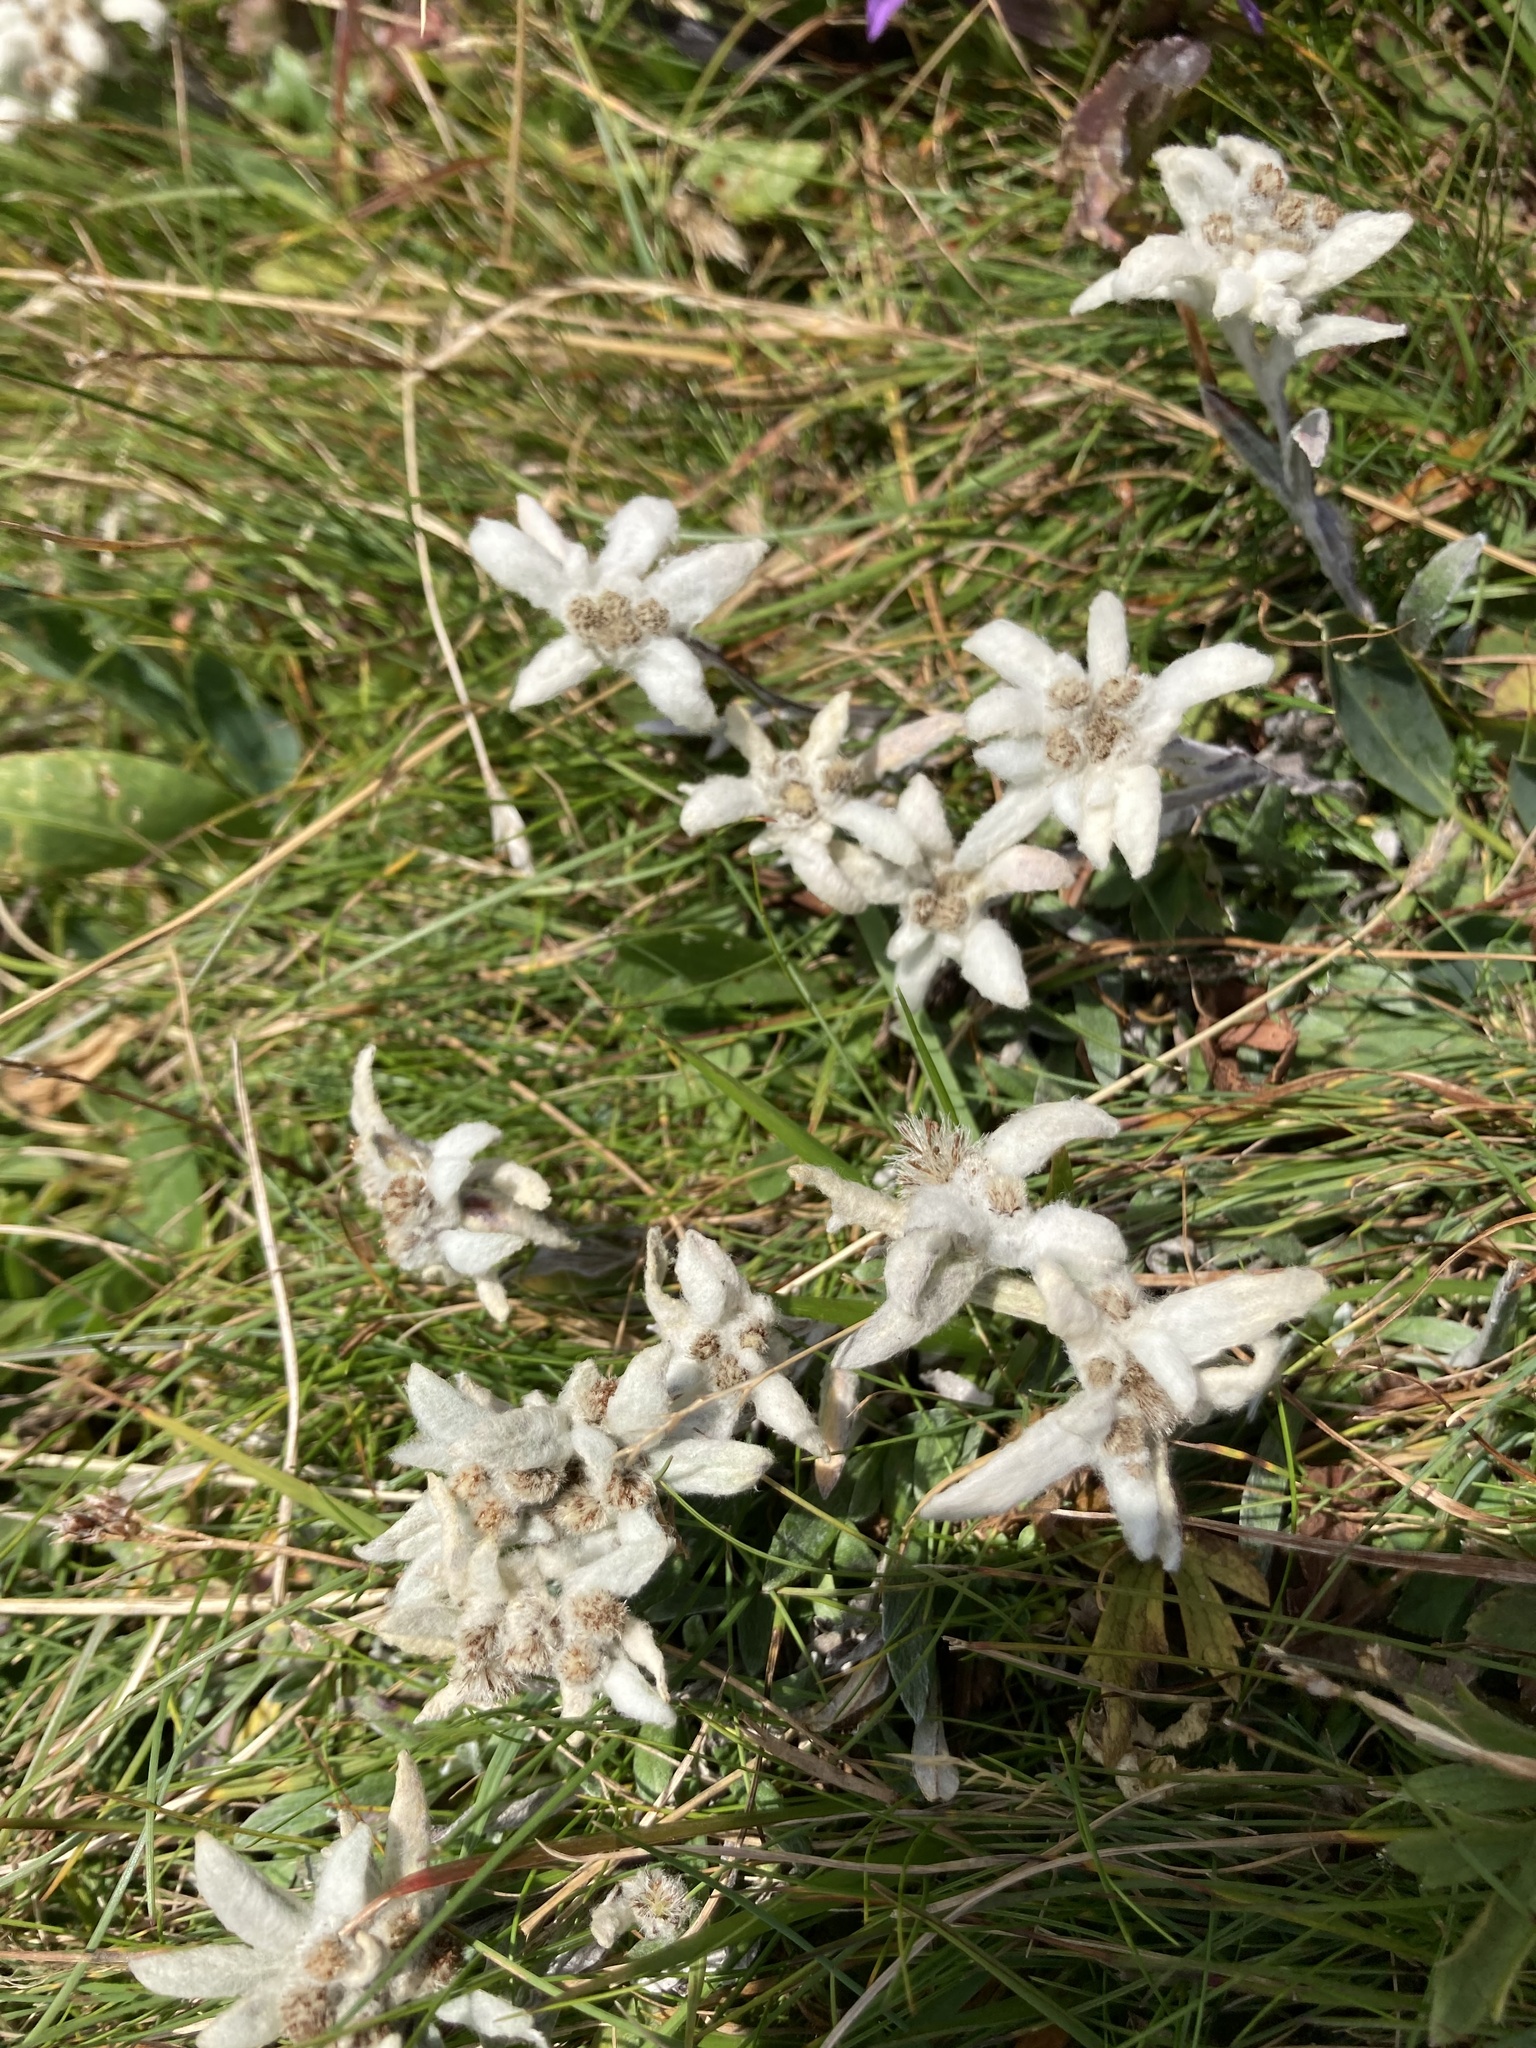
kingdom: Plantae
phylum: Tracheophyta
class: Magnoliopsida
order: Asterales
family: Asteraceae
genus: Leontopodium
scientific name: Leontopodium nivale
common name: Edelweiss
